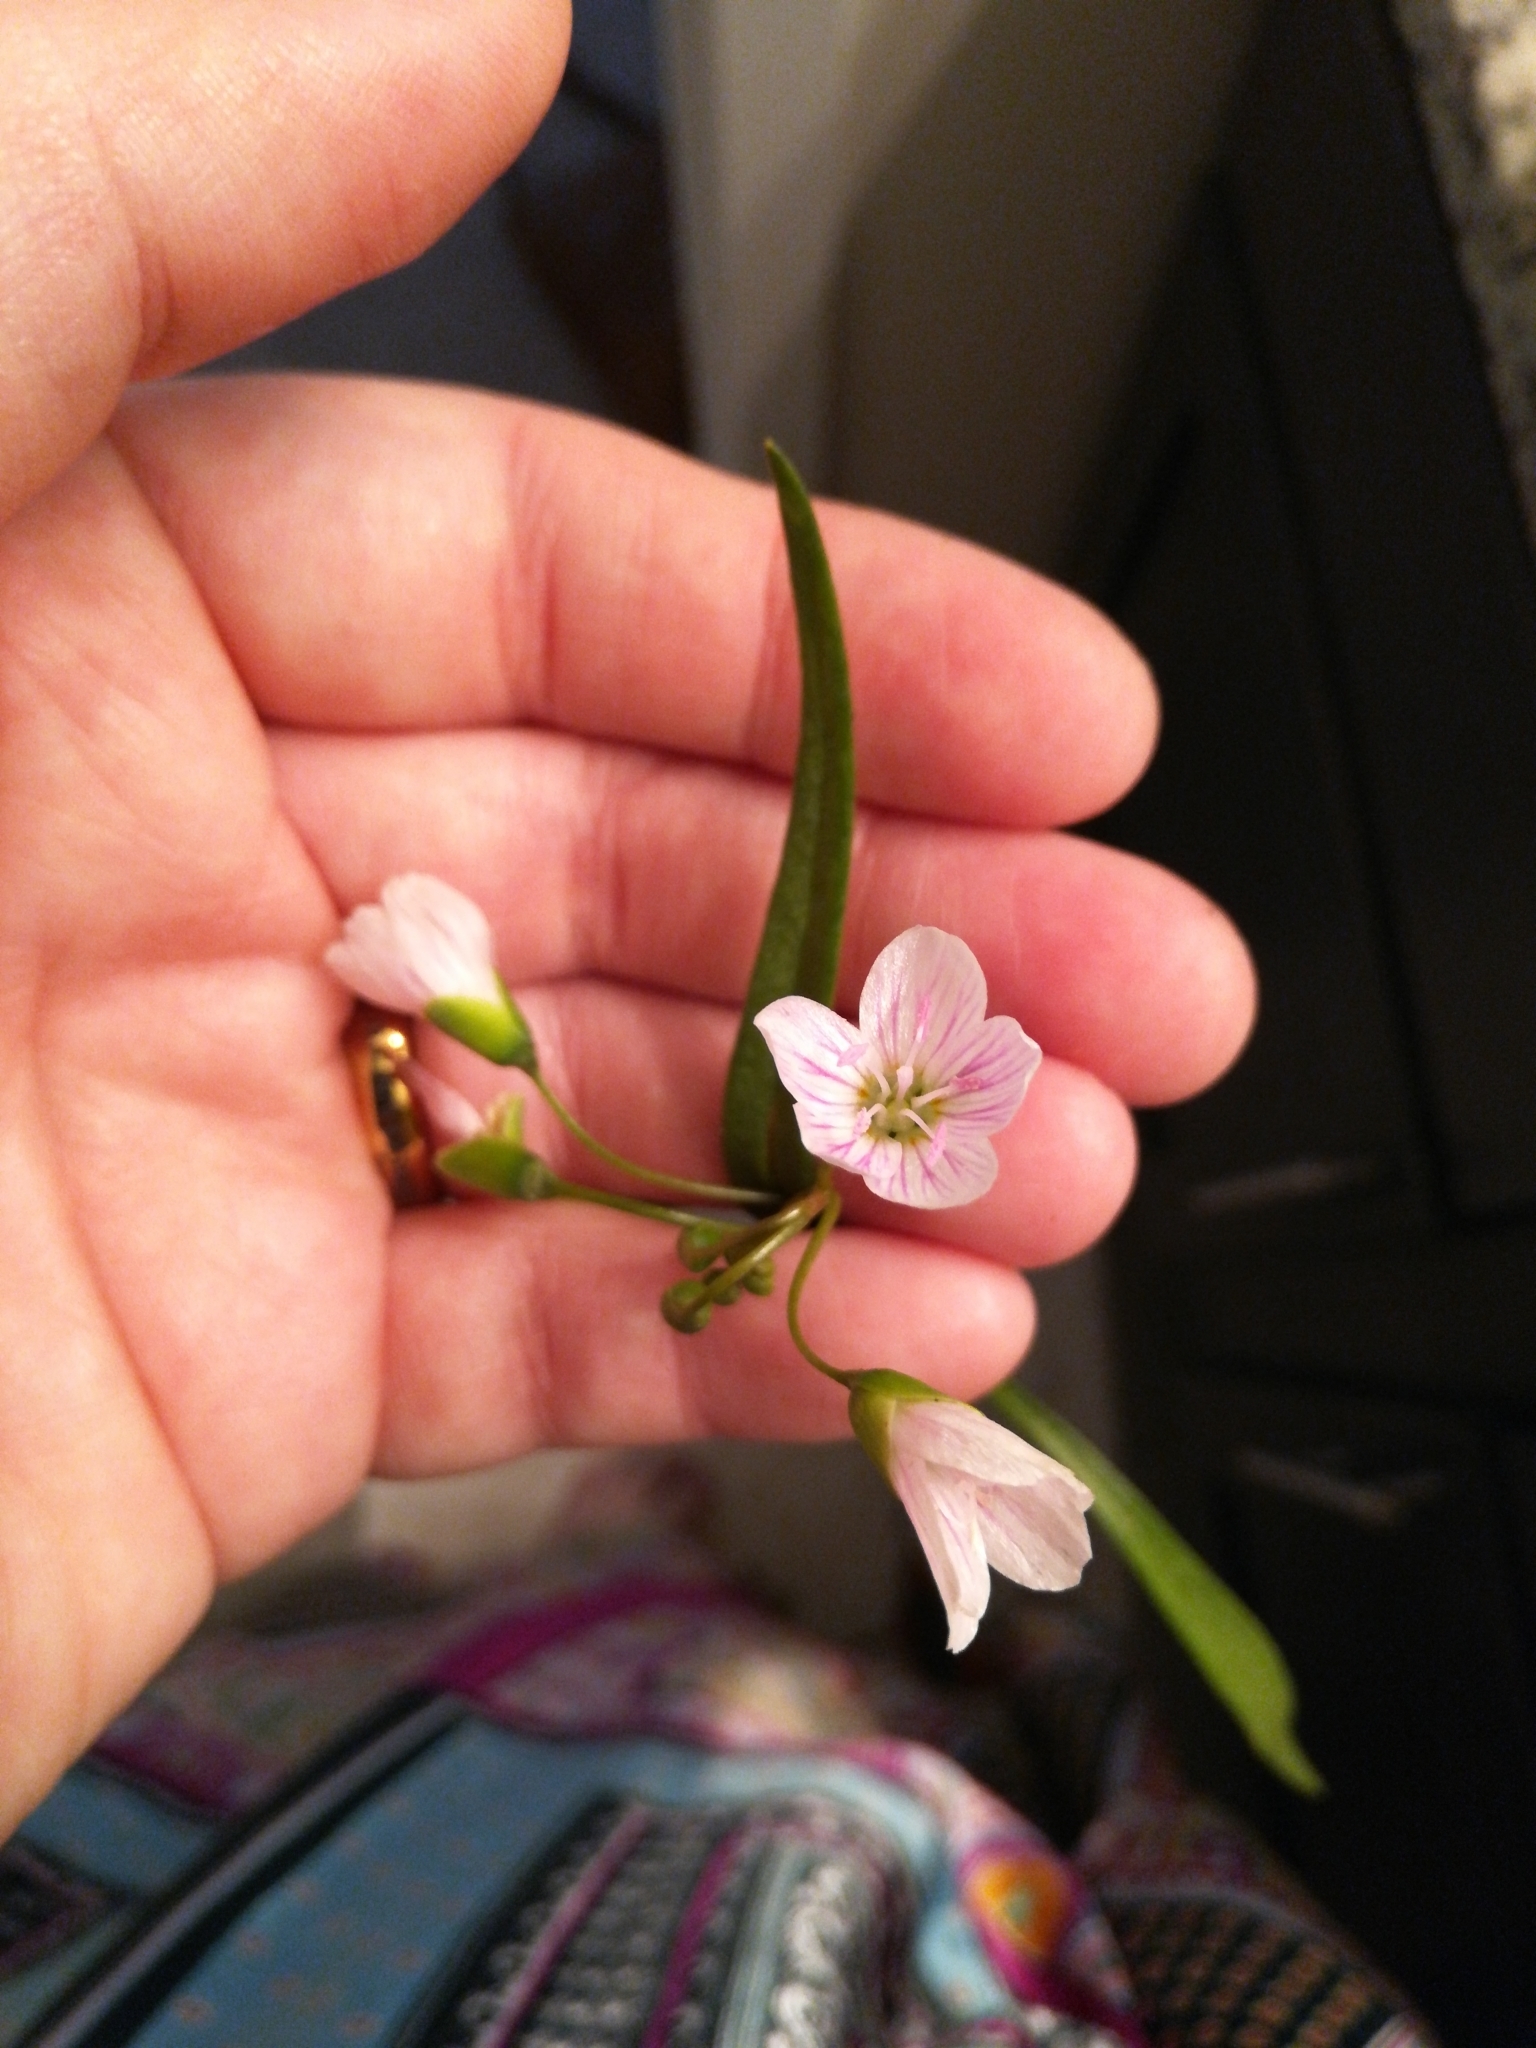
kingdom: Plantae
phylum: Tracheophyta
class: Magnoliopsida
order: Caryophyllales
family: Montiaceae
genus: Claytonia
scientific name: Claytonia virginica
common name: Virginia springbeauty
